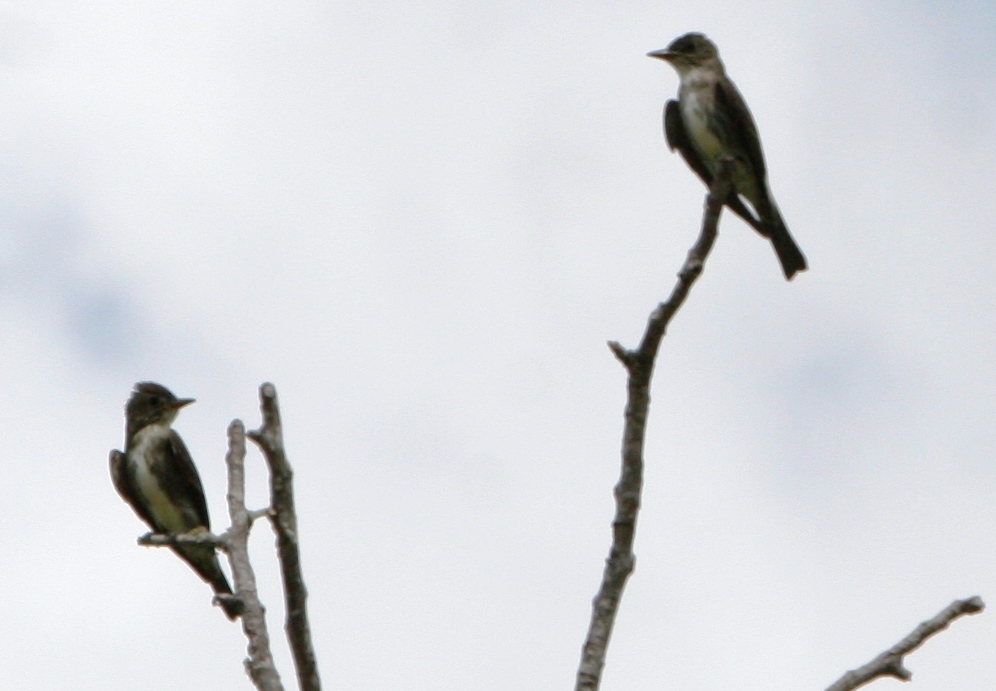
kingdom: Animalia
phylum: Chordata
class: Aves
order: Passeriformes
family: Tyrannidae
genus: Contopus
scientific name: Contopus cooperi
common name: Olive-sided flycatcher
